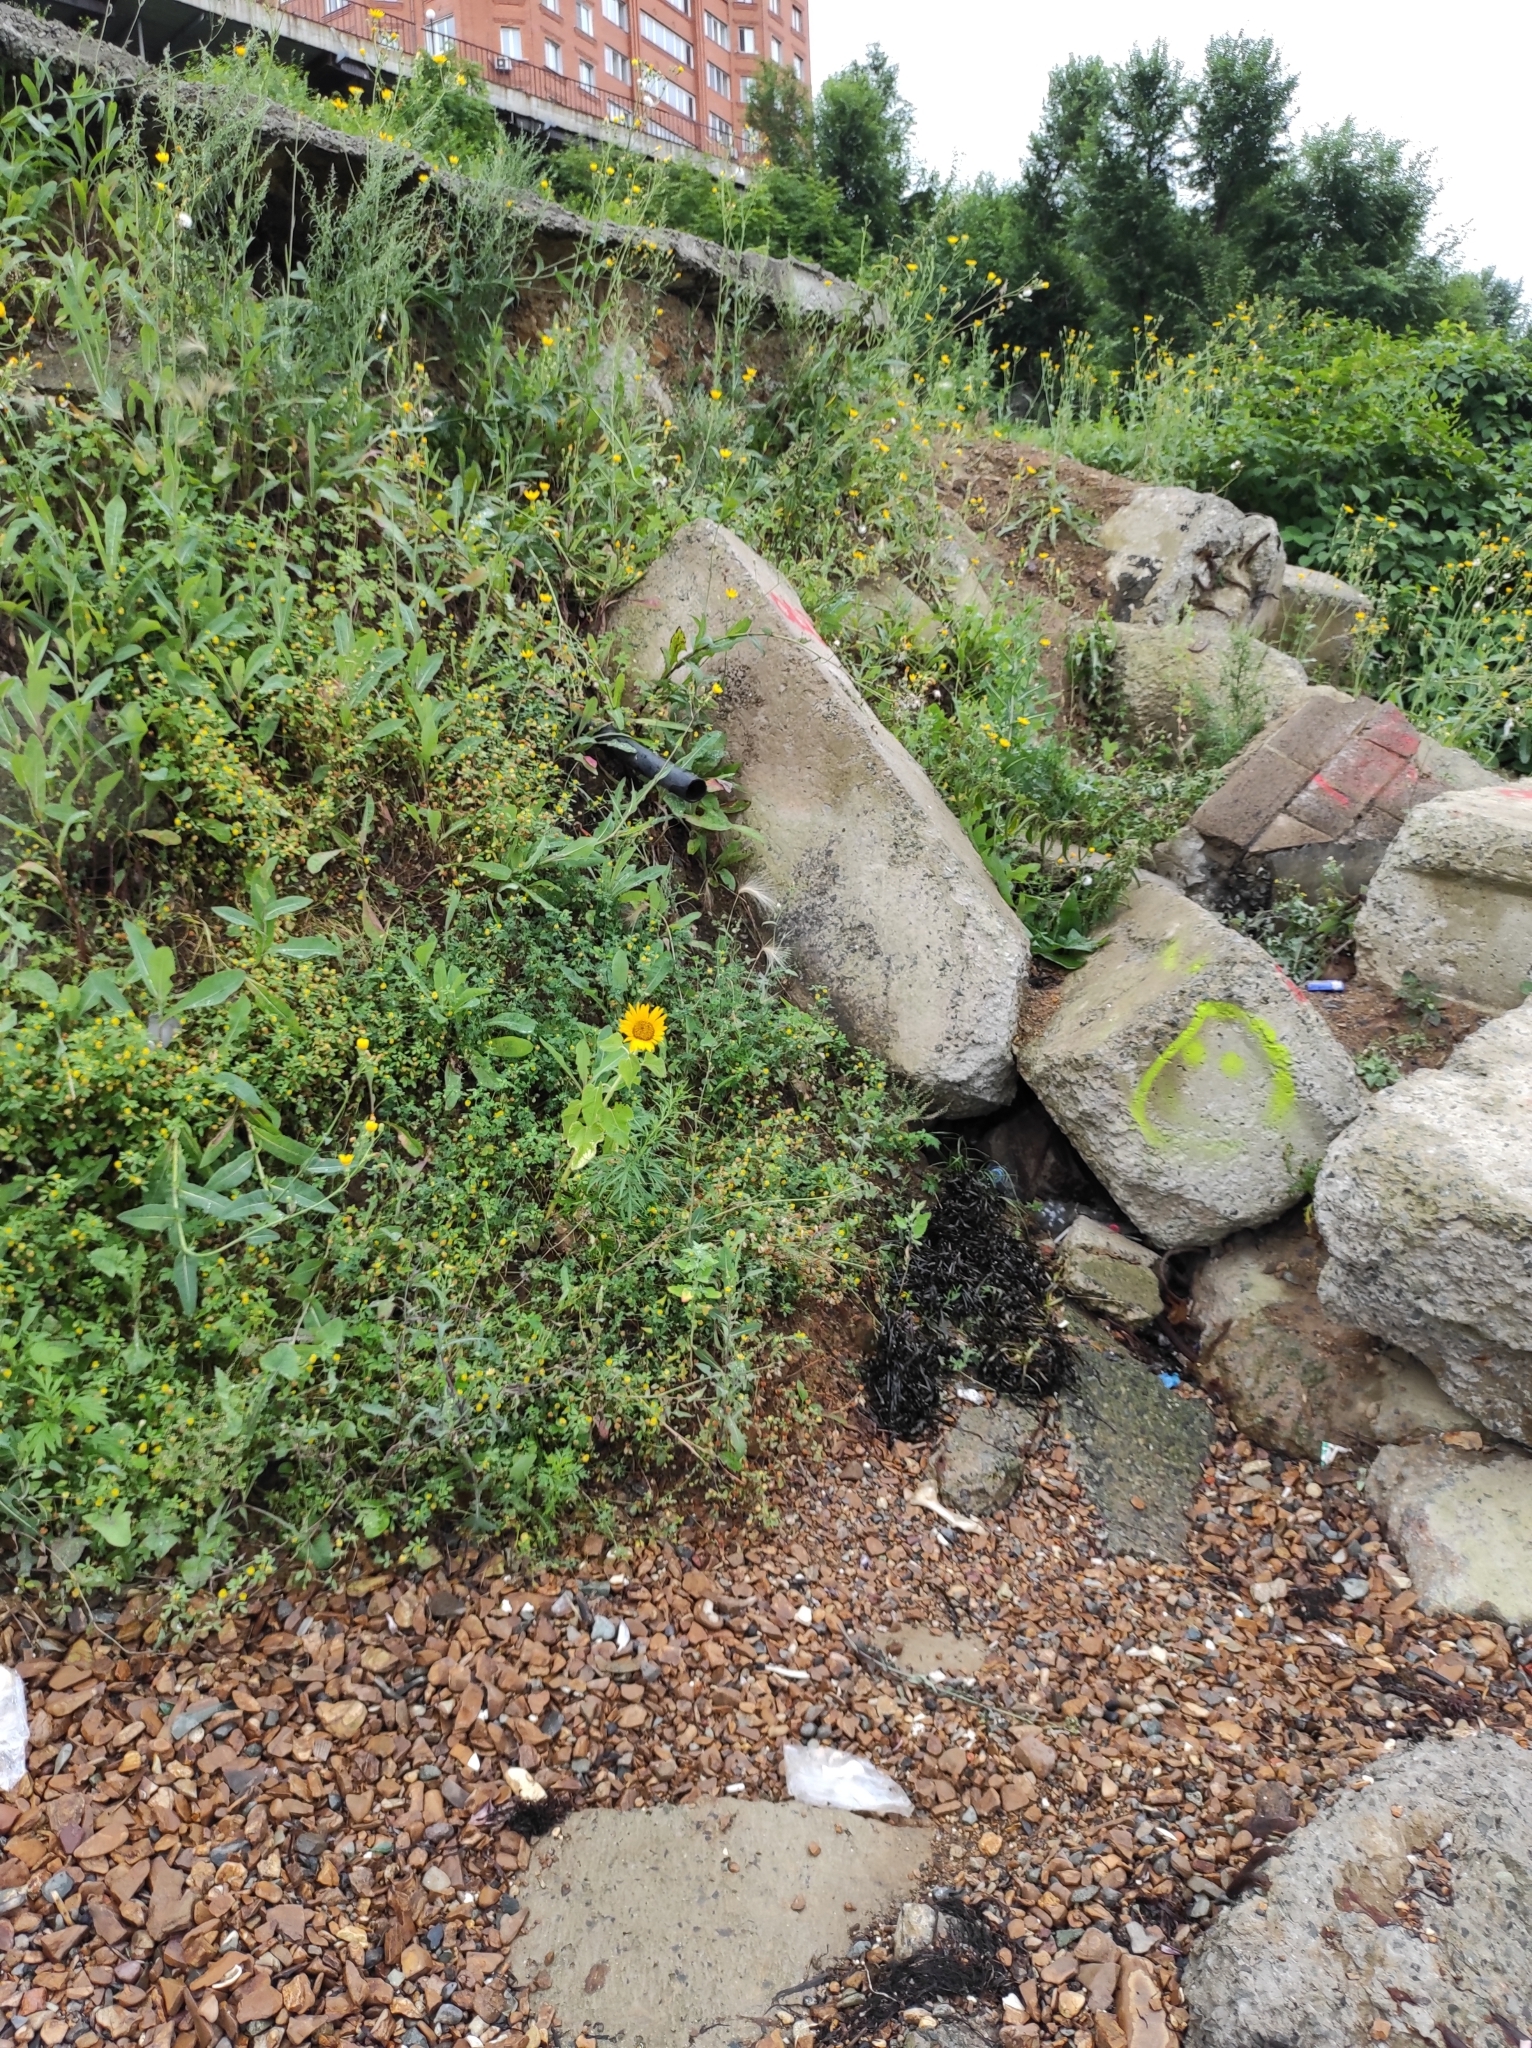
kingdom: Plantae
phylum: Tracheophyta
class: Magnoliopsida
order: Asterales
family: Asteraceae
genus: Helianthus
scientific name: Helianthus annuus
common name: Sunflower
